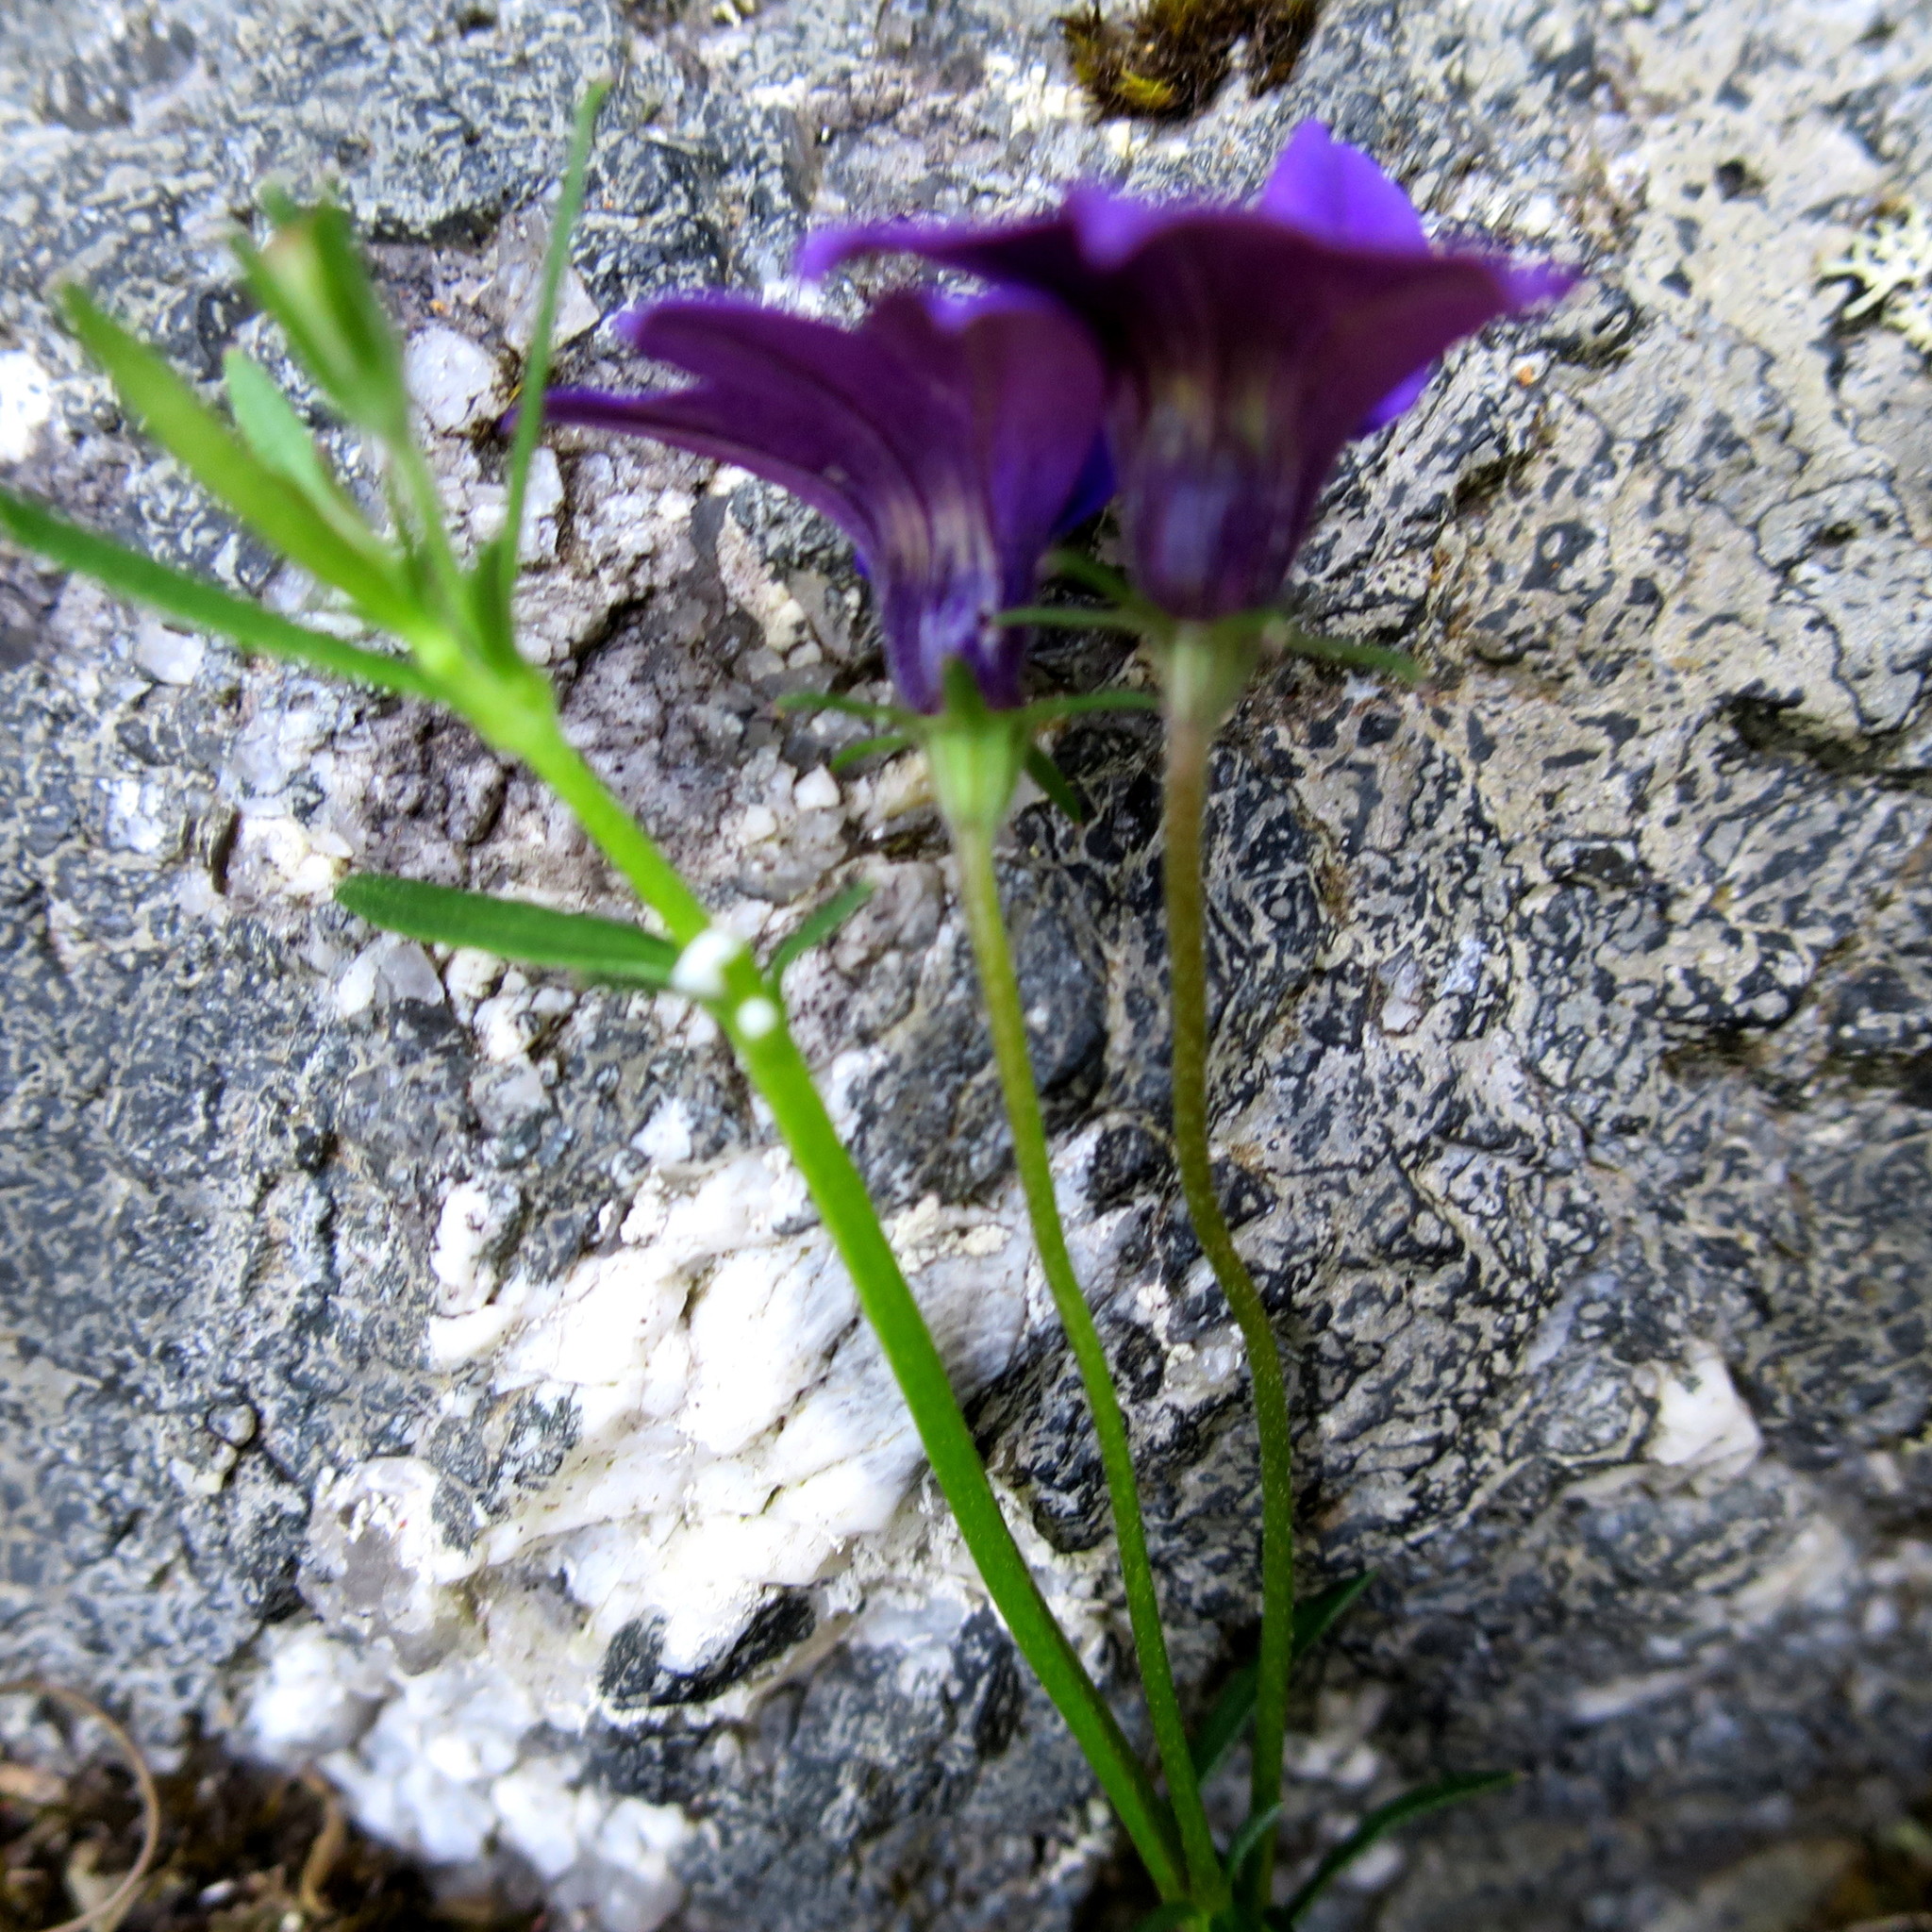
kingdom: Plantae
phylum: Tracheophyta
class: Magnoliopsida
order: Asterales
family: Campanulaceae
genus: Monopsis
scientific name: Monopsis unidentata
